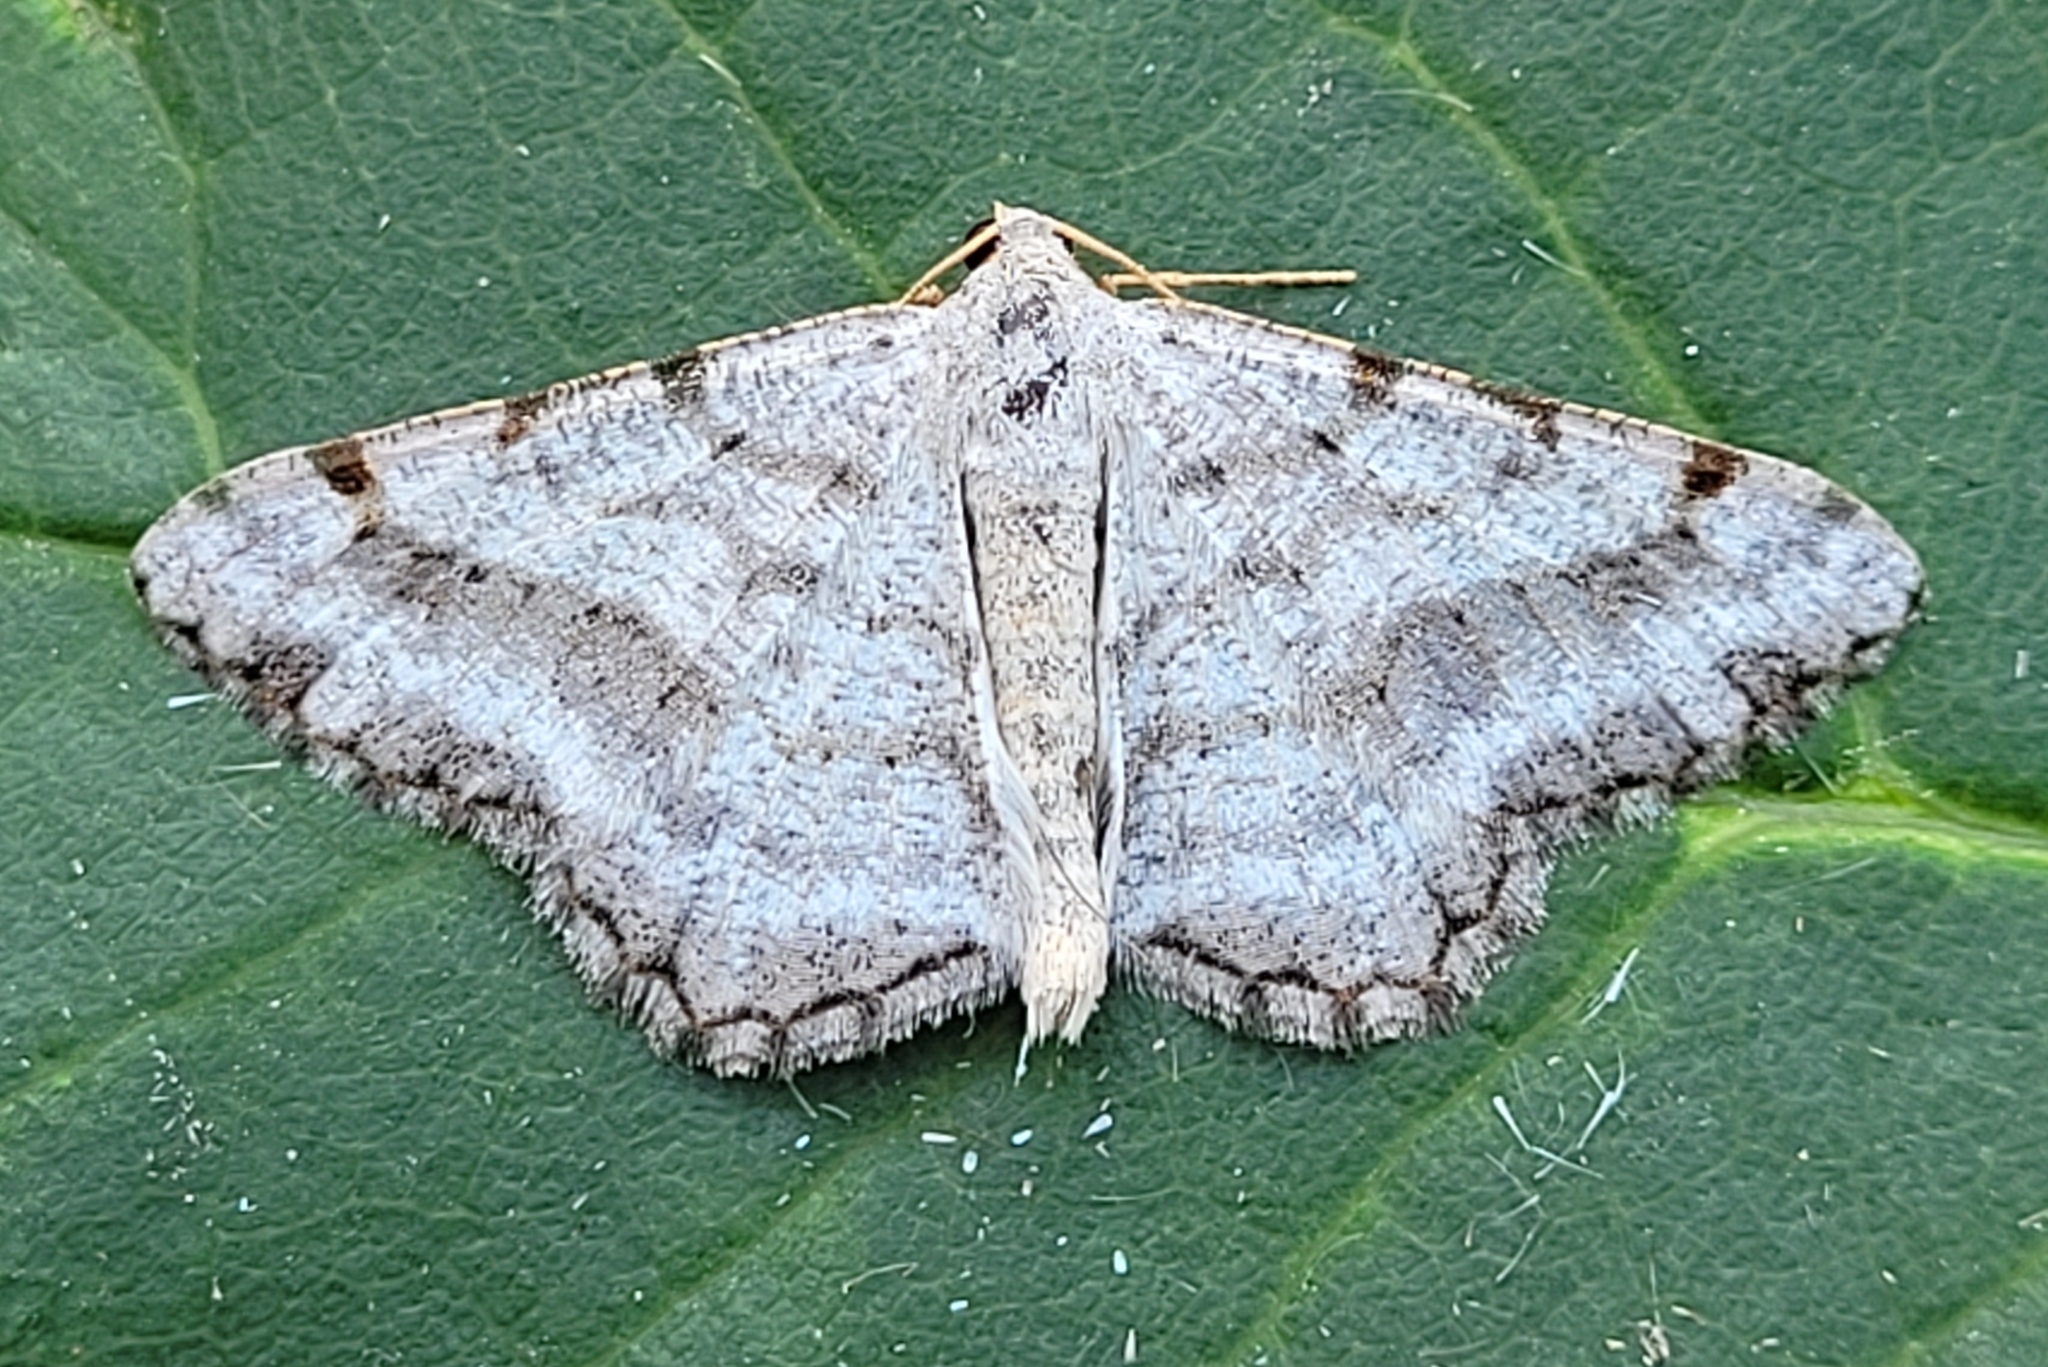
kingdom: Animalia
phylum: Arthropoda
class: Insecta
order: Lepidoptera
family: Geometridae
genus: Digrammia
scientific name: Digrammia denticulata
